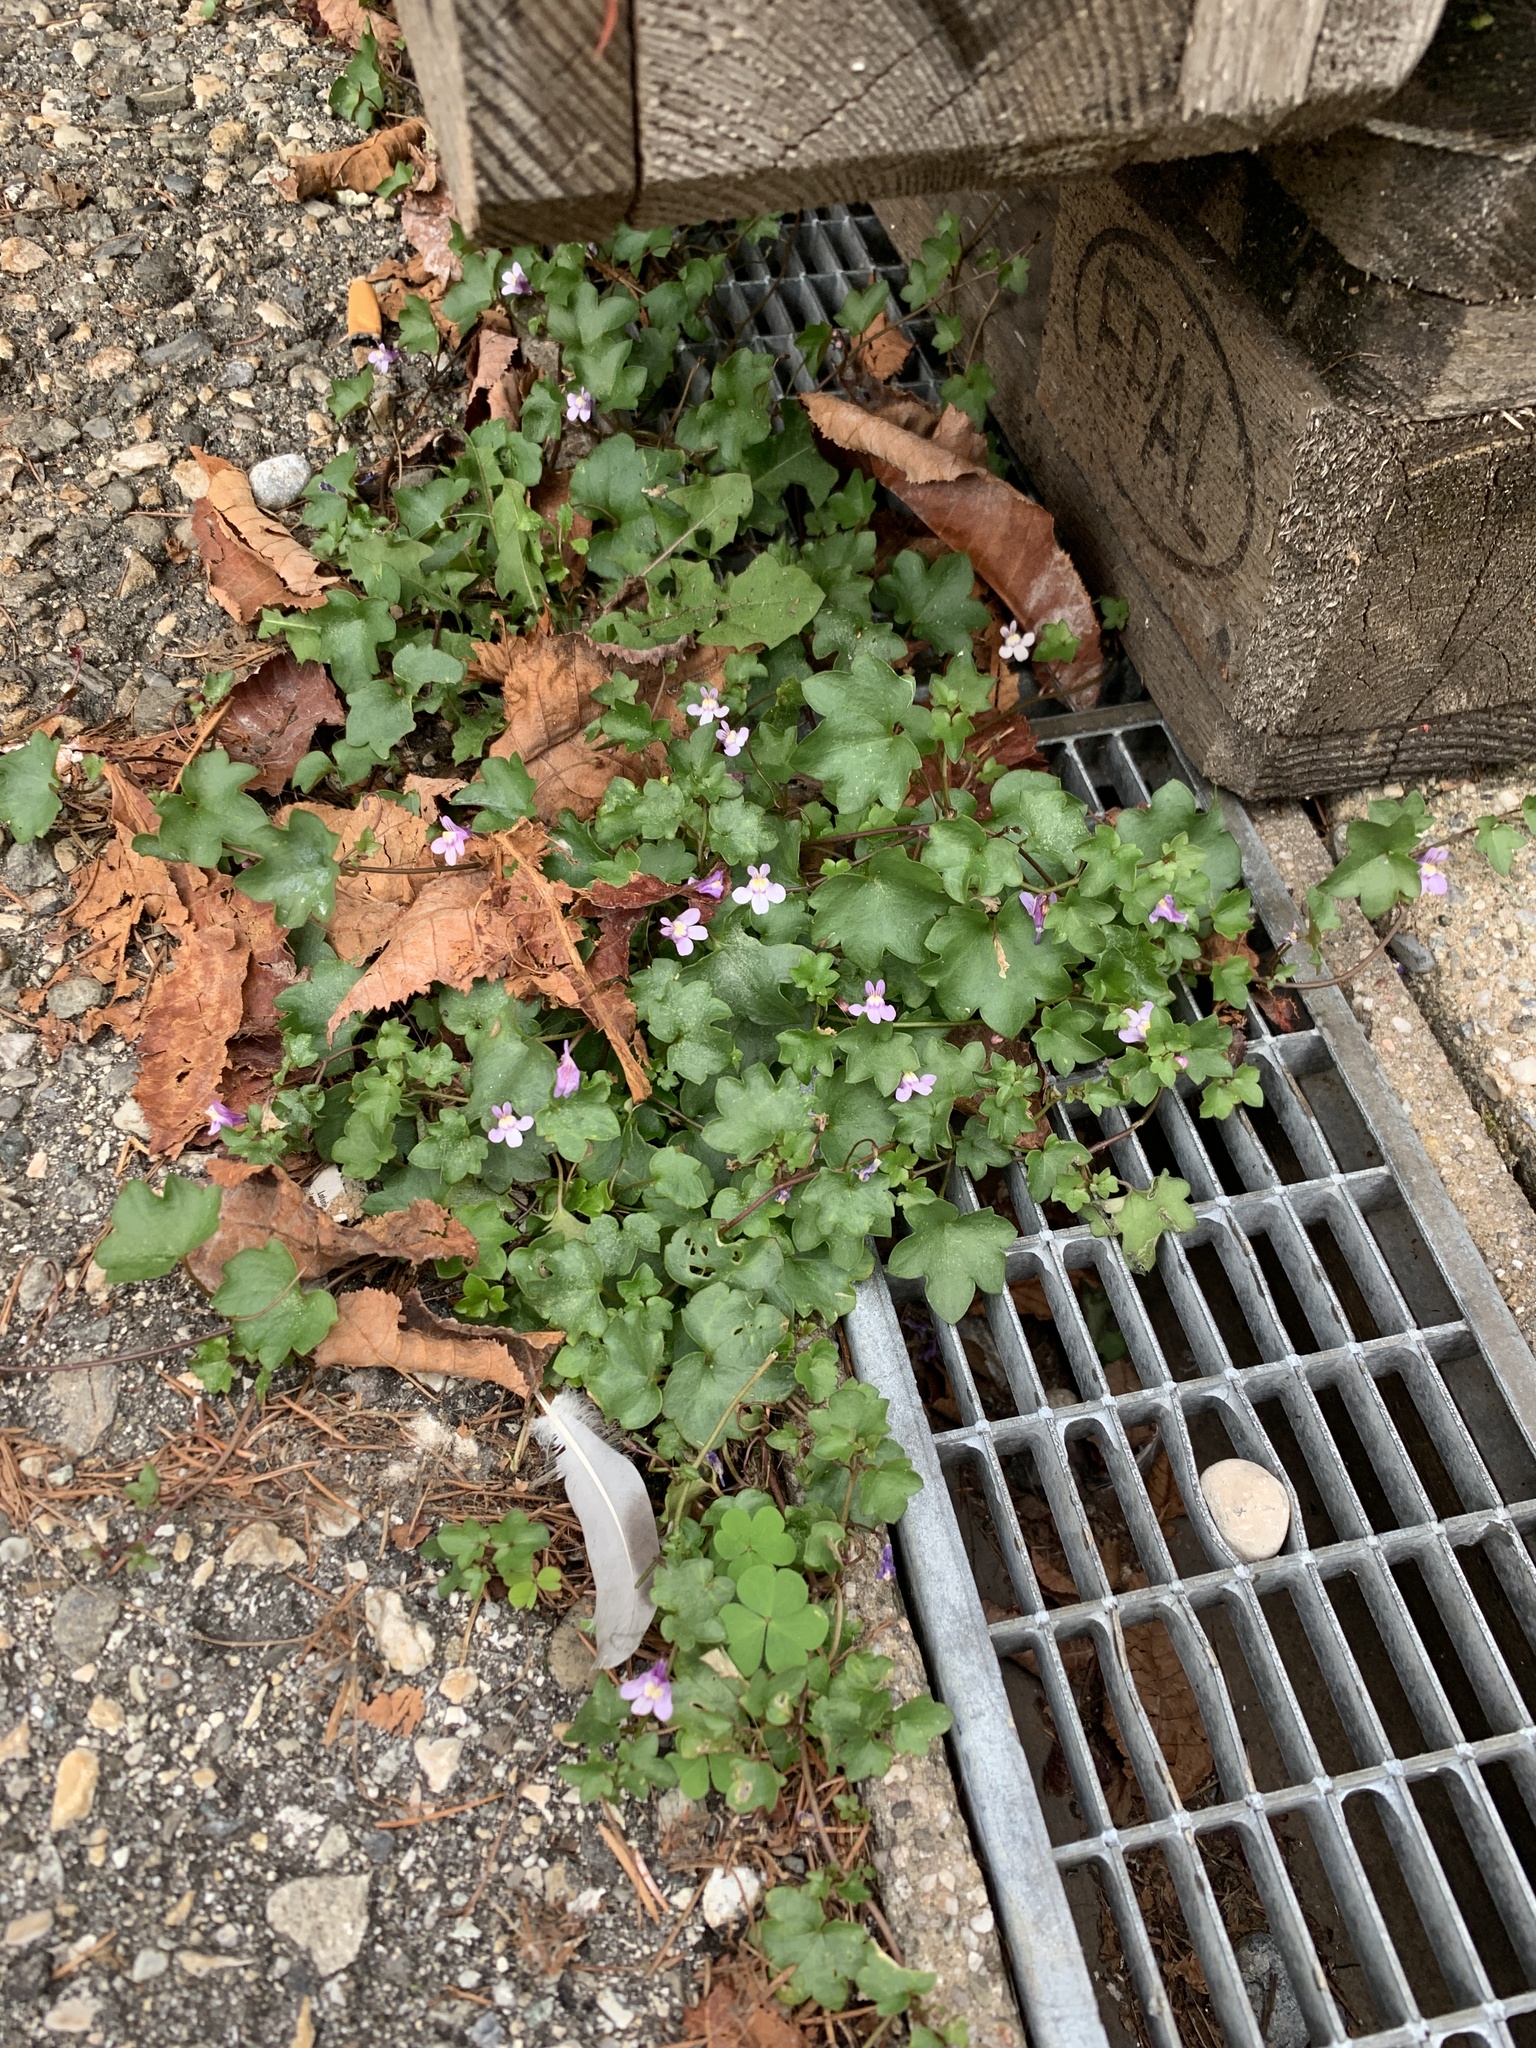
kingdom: Plantae
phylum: Tracheophyta
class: Magnoliopsida
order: Lamiales
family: Plantaginaceae
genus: Cymbalaria
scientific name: Cymbalaria muralis
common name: Ivy-leaved toadflax
